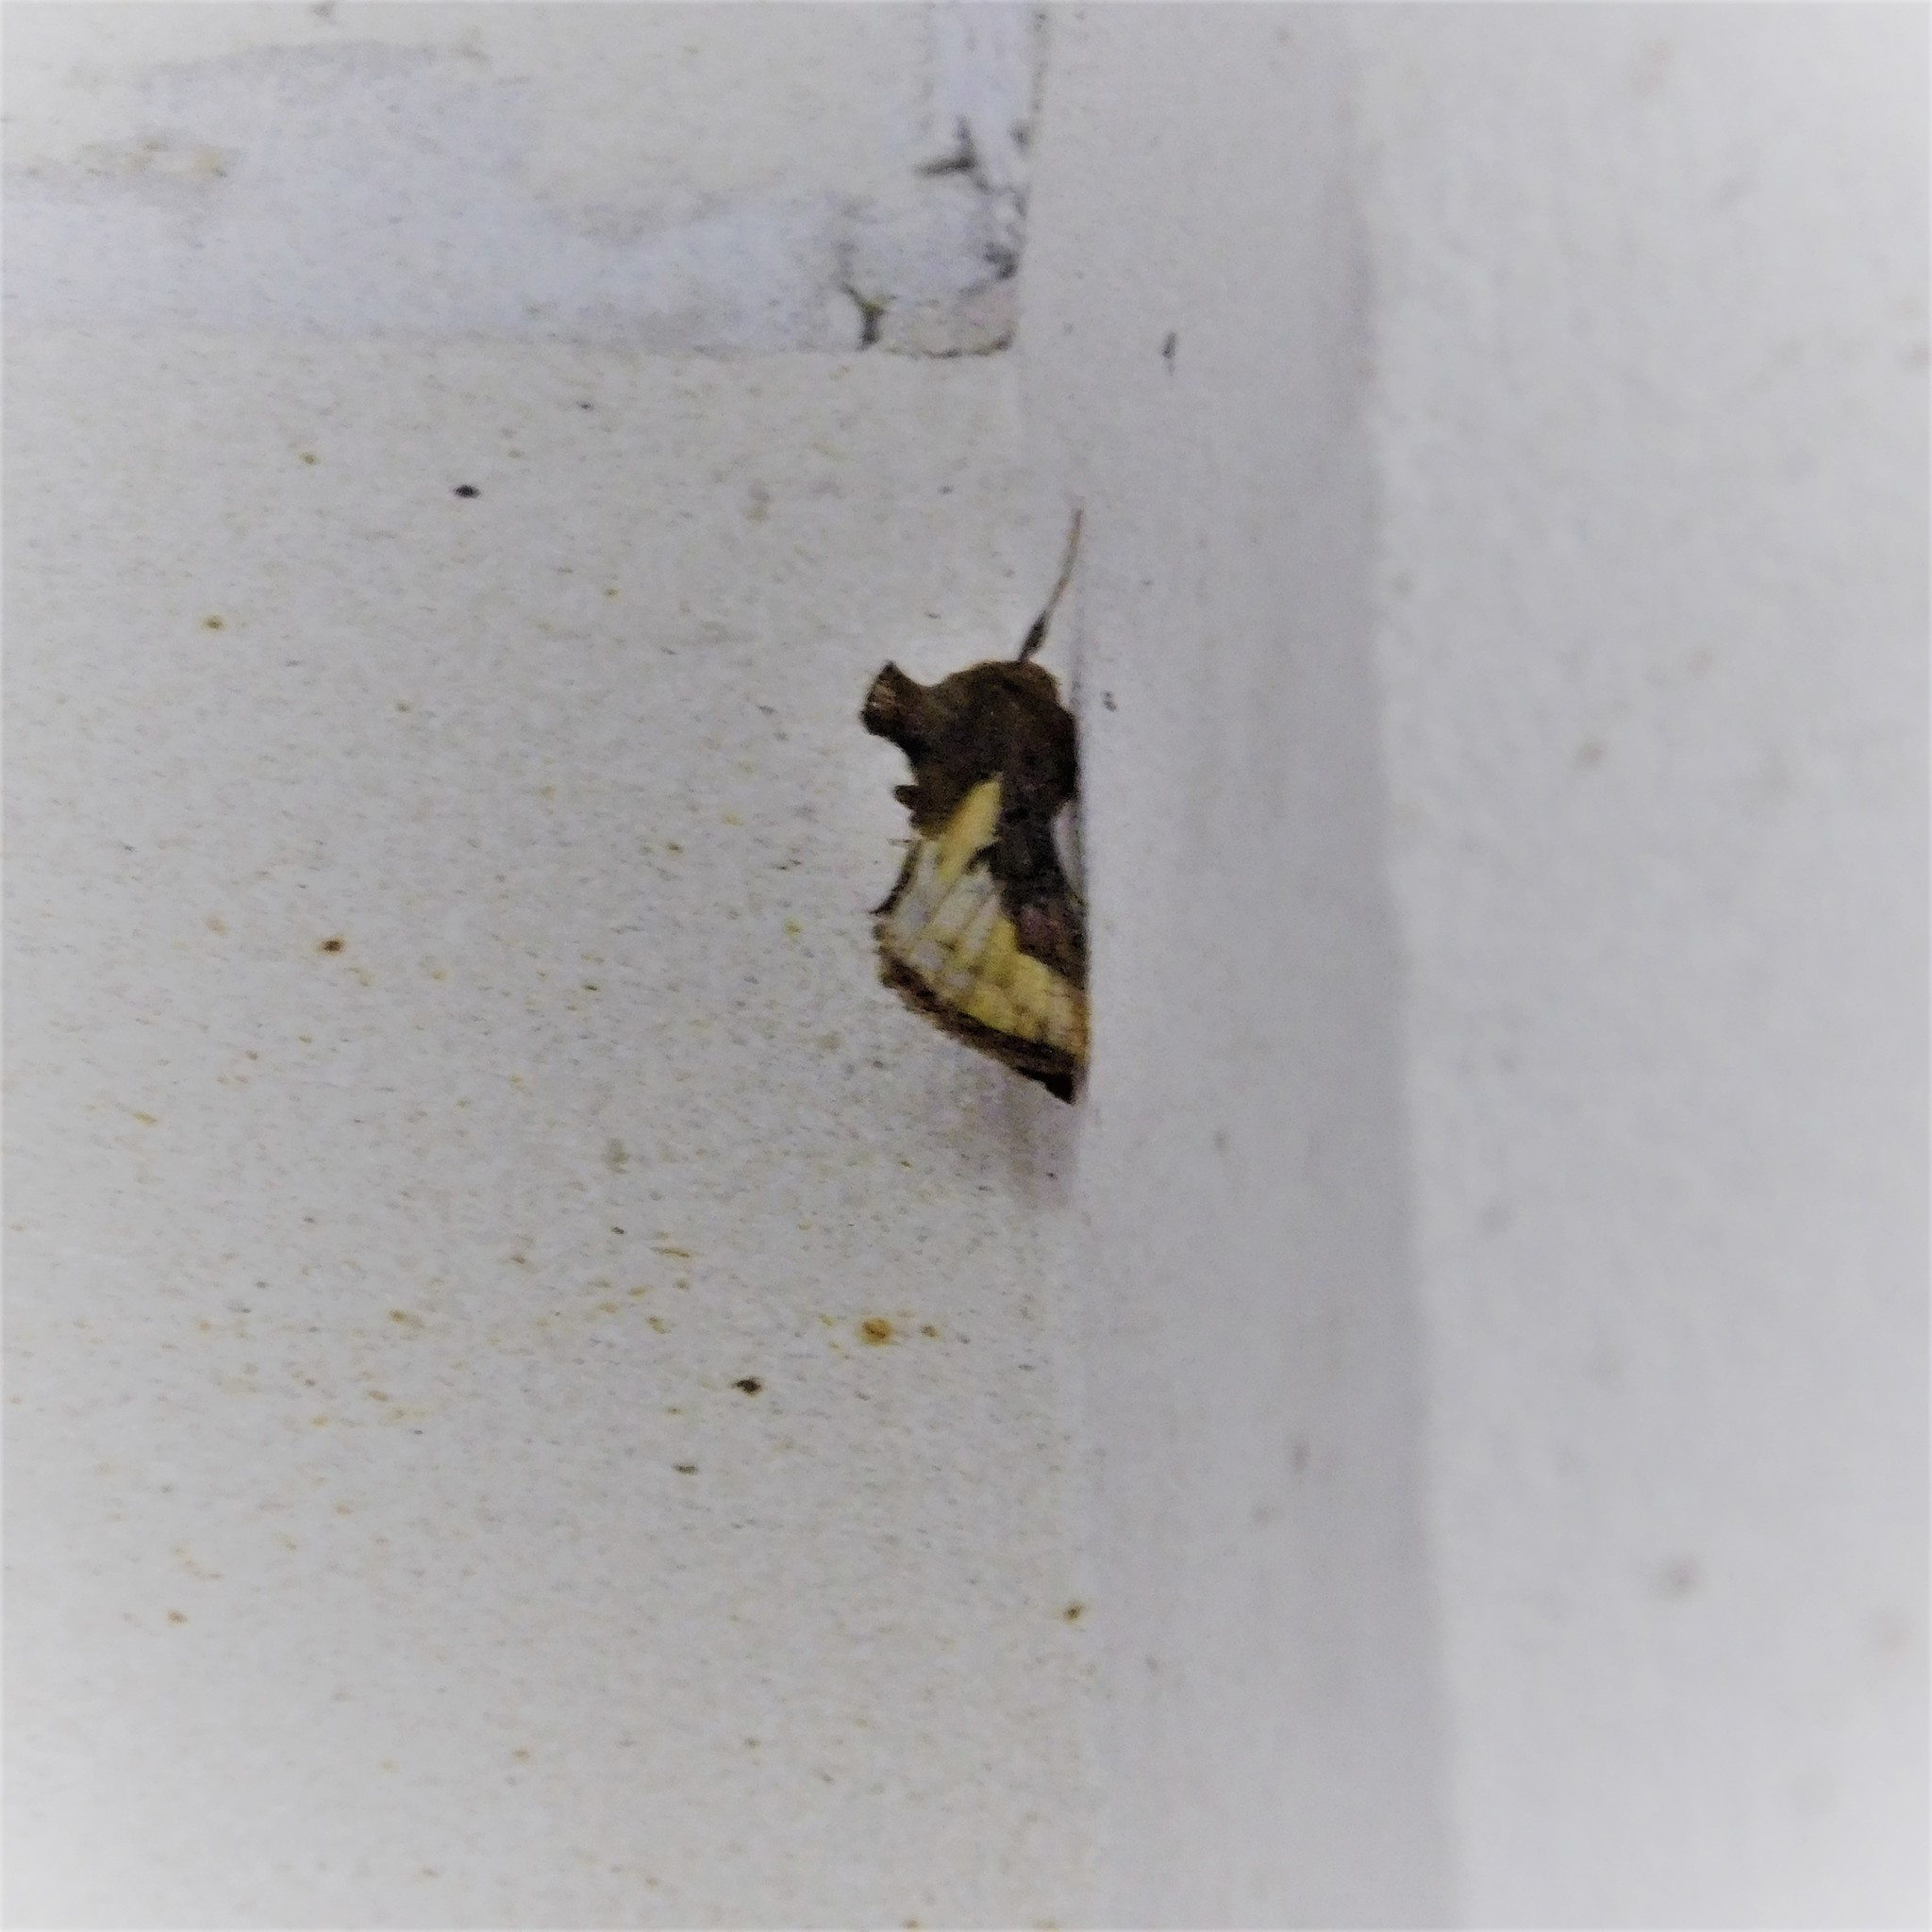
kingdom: Animalia
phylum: Arthropoda
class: Insecta
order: Lepidoptera
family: Noctuidae
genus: Thysanoplusia
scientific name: Thysanoplusia orichalcea
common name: Slender burnished brass, golden plusia
